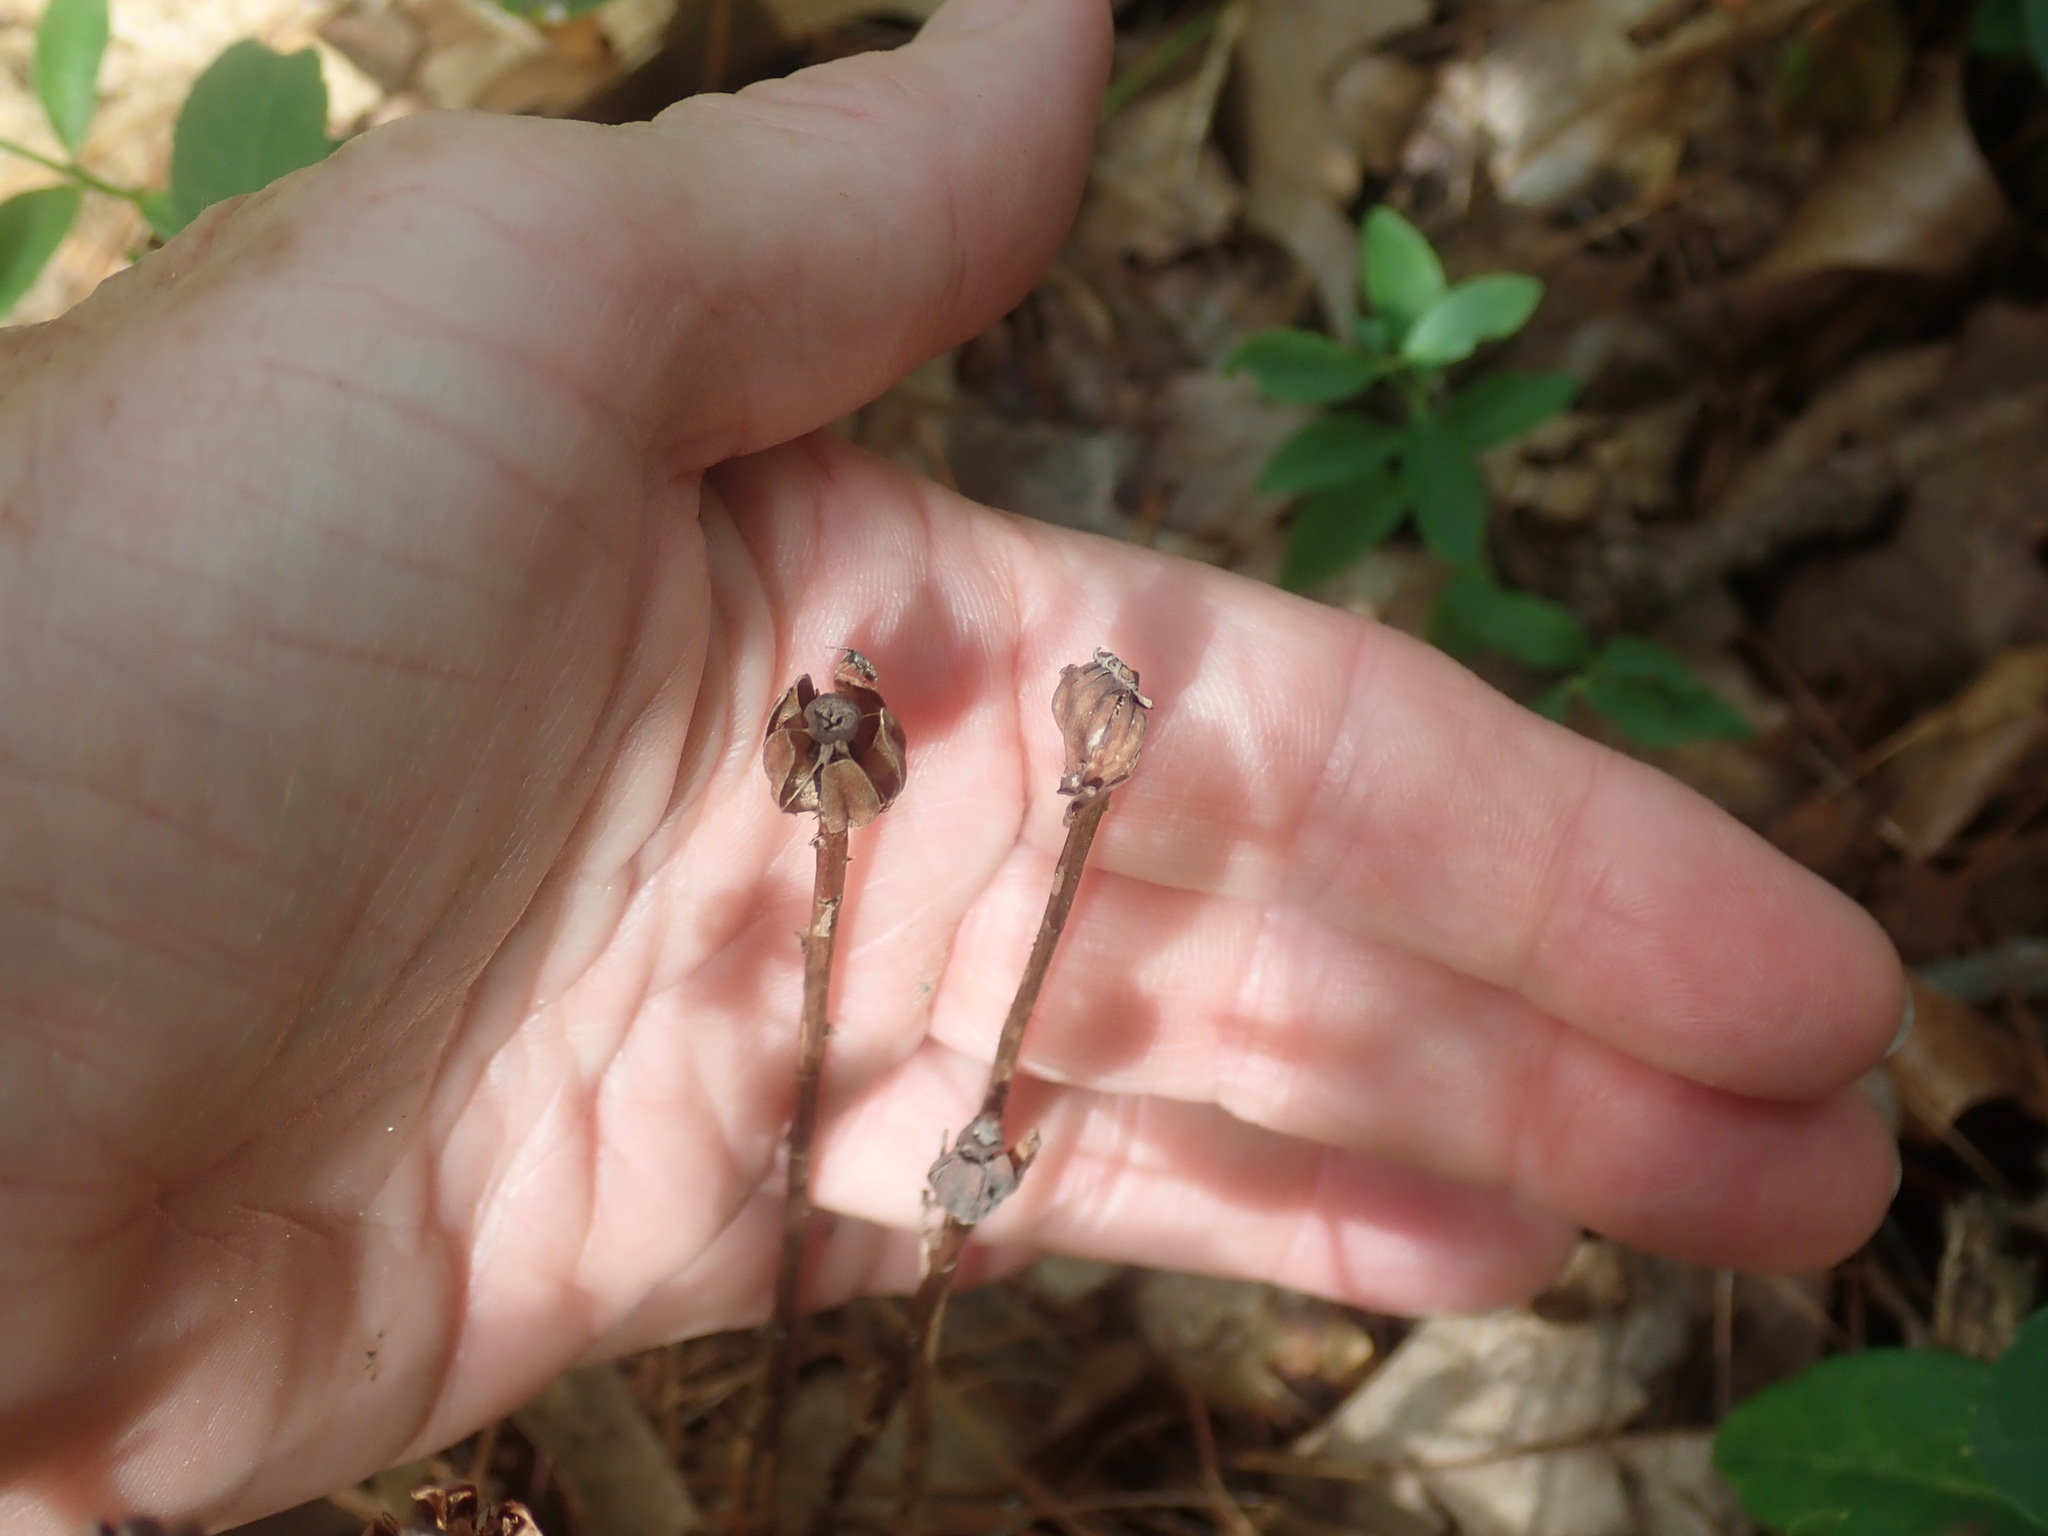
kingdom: Plantae
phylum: Tracheophyta
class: Magnoliopsida
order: Ericales
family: Ericaceae
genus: Monotropa
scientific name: Monotropa uniflora
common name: Convulsion root
